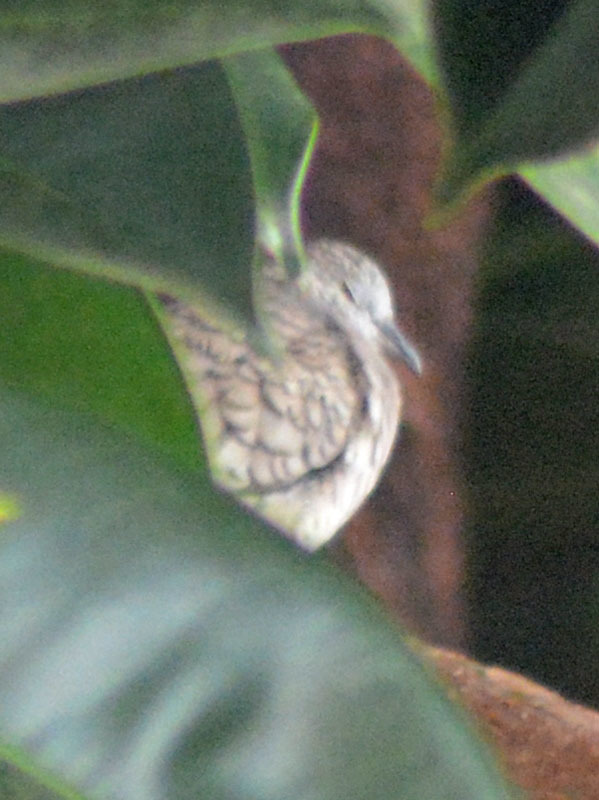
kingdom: Animalia
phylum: Chordata
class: Aves
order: Columbiformes
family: Columbidae
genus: Columbina
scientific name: Columbina inca
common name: Inca dove
